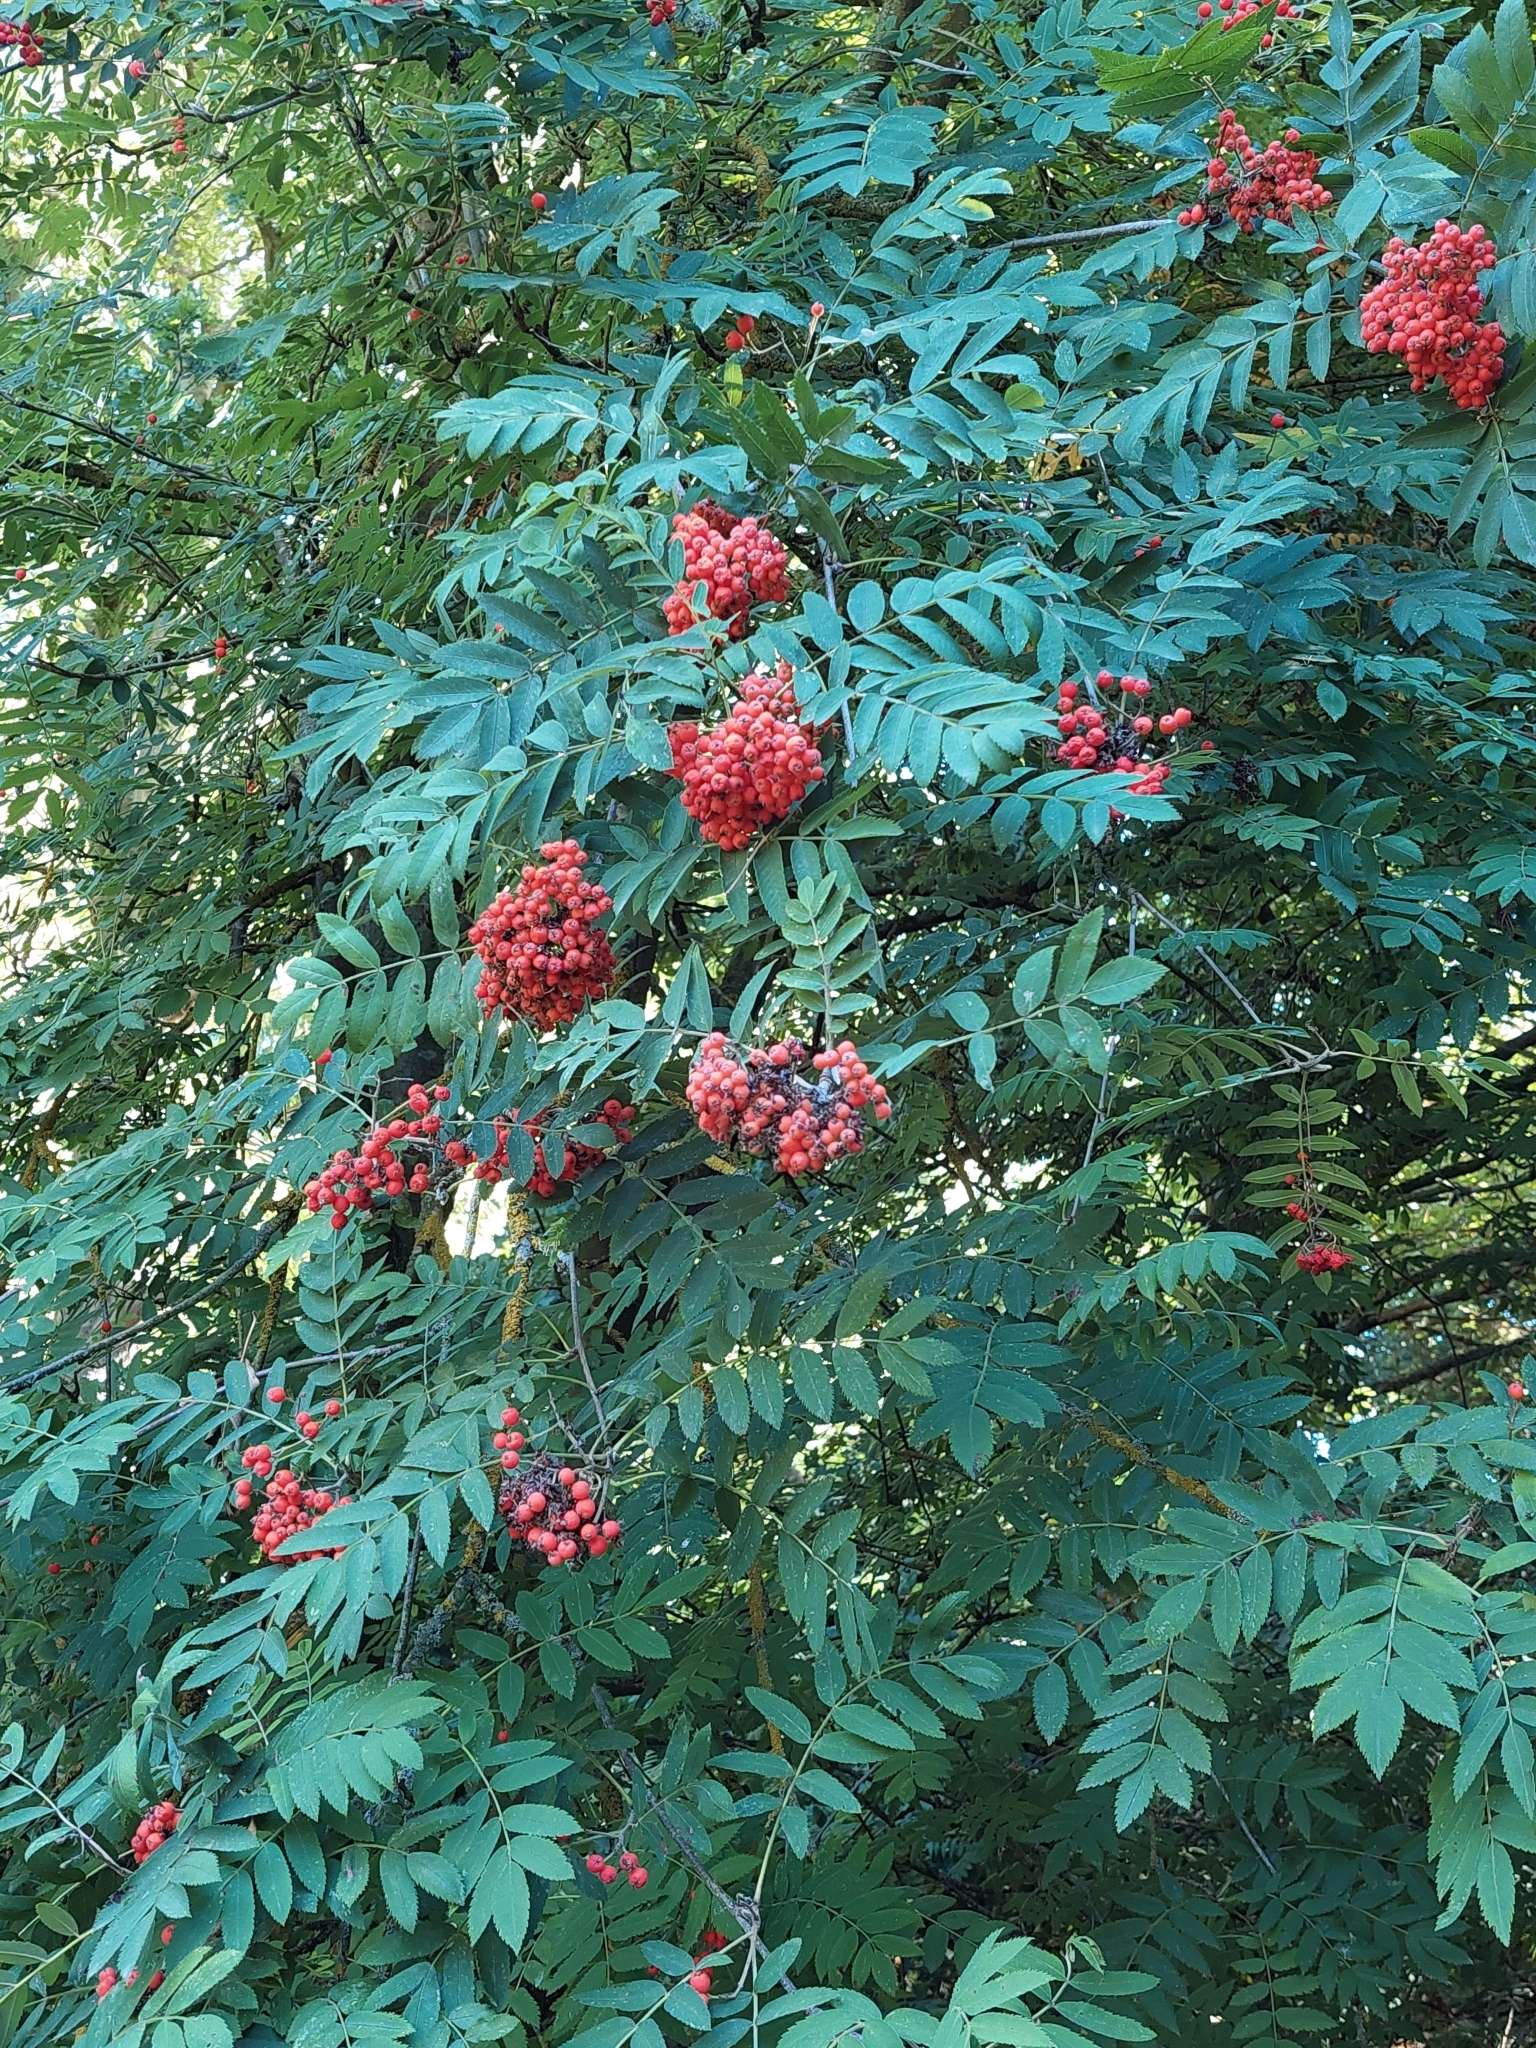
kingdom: Plantae
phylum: Tracheophyta
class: Magnoliopsida
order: Rosales
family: Rosaceae
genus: Sorbus
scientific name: Sorbus aucuparia
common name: Rowan
